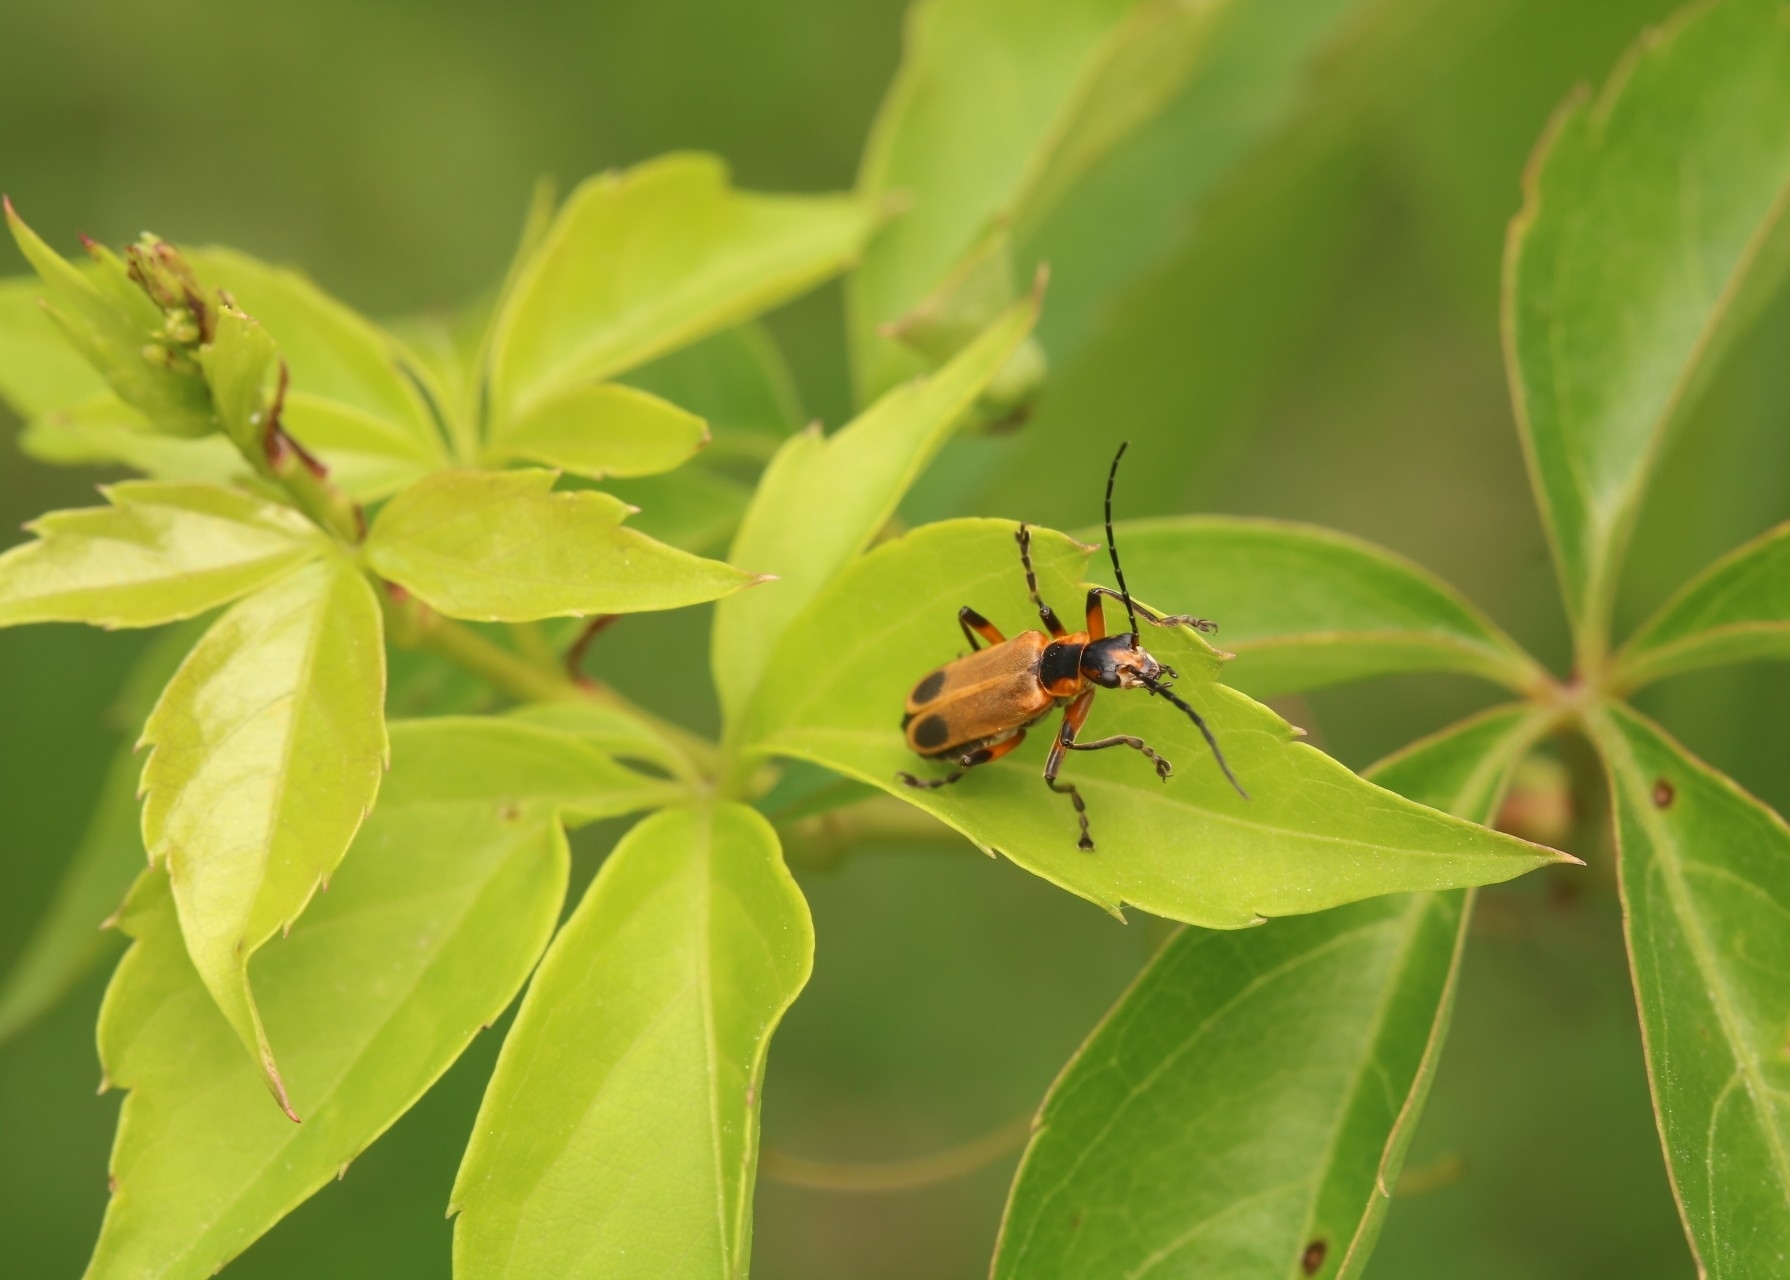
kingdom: Animalia
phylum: Arthropoda
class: Insecta
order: Coleoptera
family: Cantharidae
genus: Chauliognathus
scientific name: Chauliognathus marginatus
